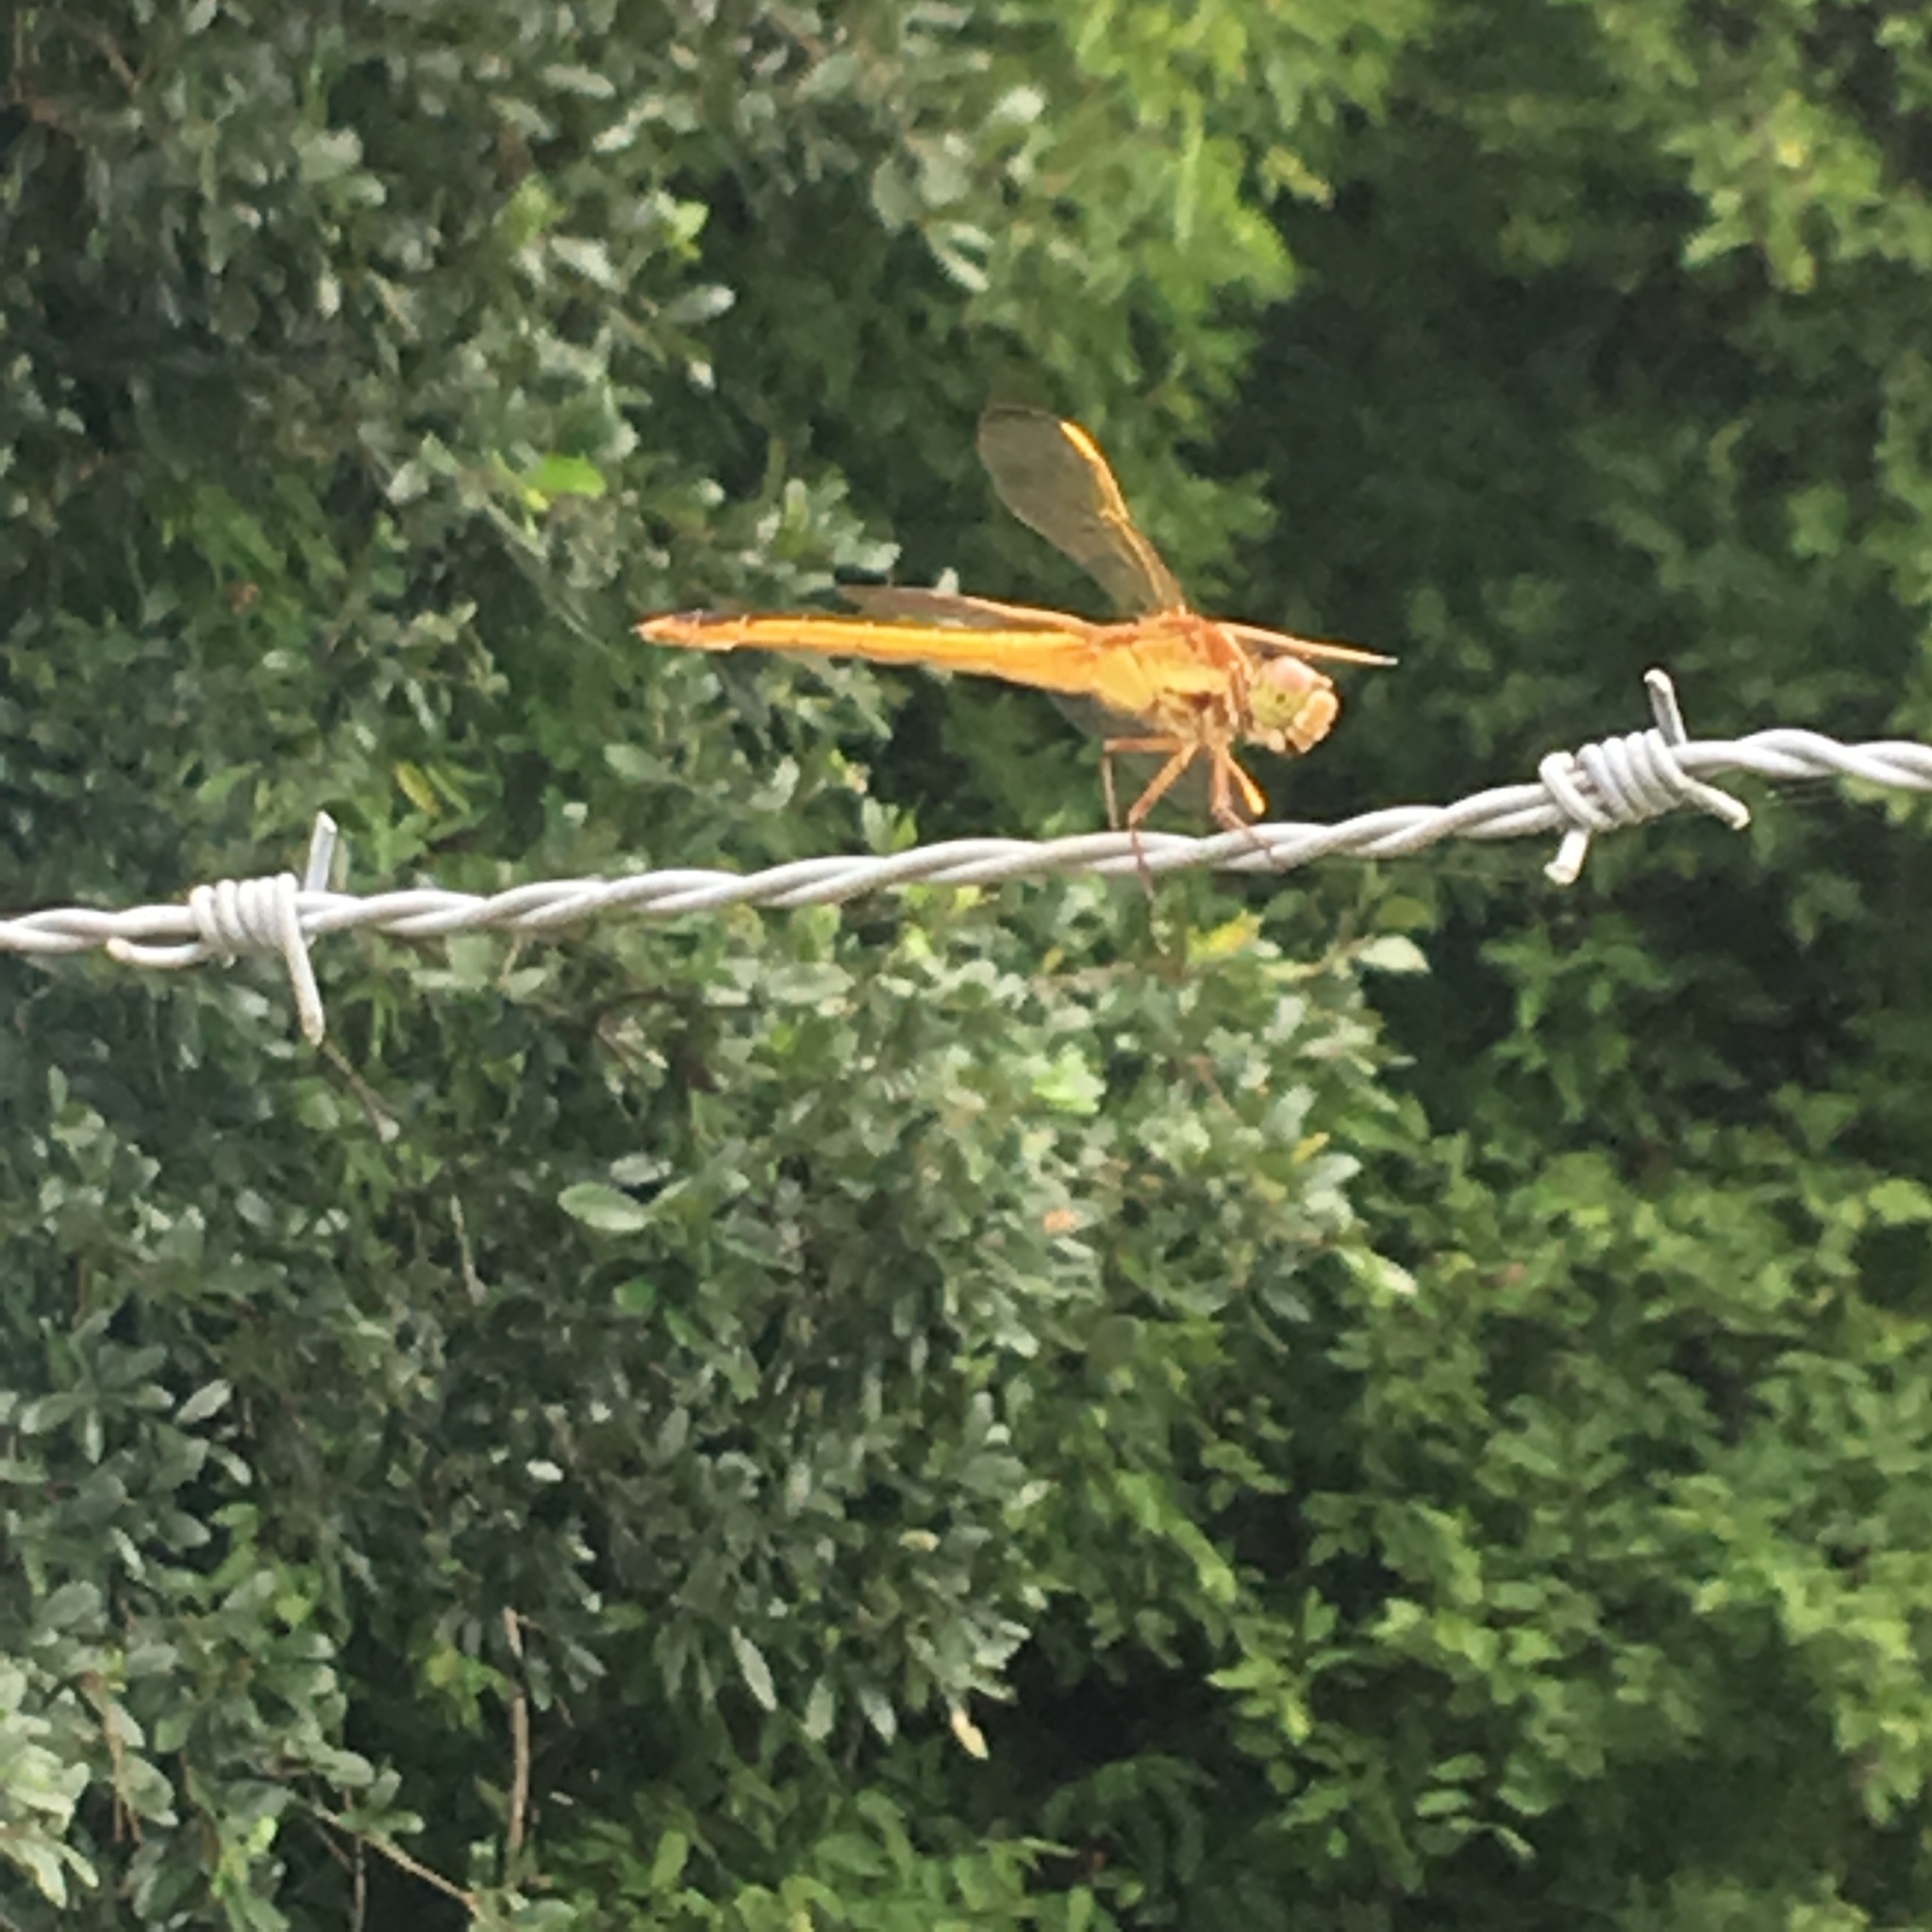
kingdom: Animalia
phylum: Arthropoda
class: Insecta
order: Odonata
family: Libellulidae
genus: Libellula
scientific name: Libellula needhami
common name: Needham's skimmer
